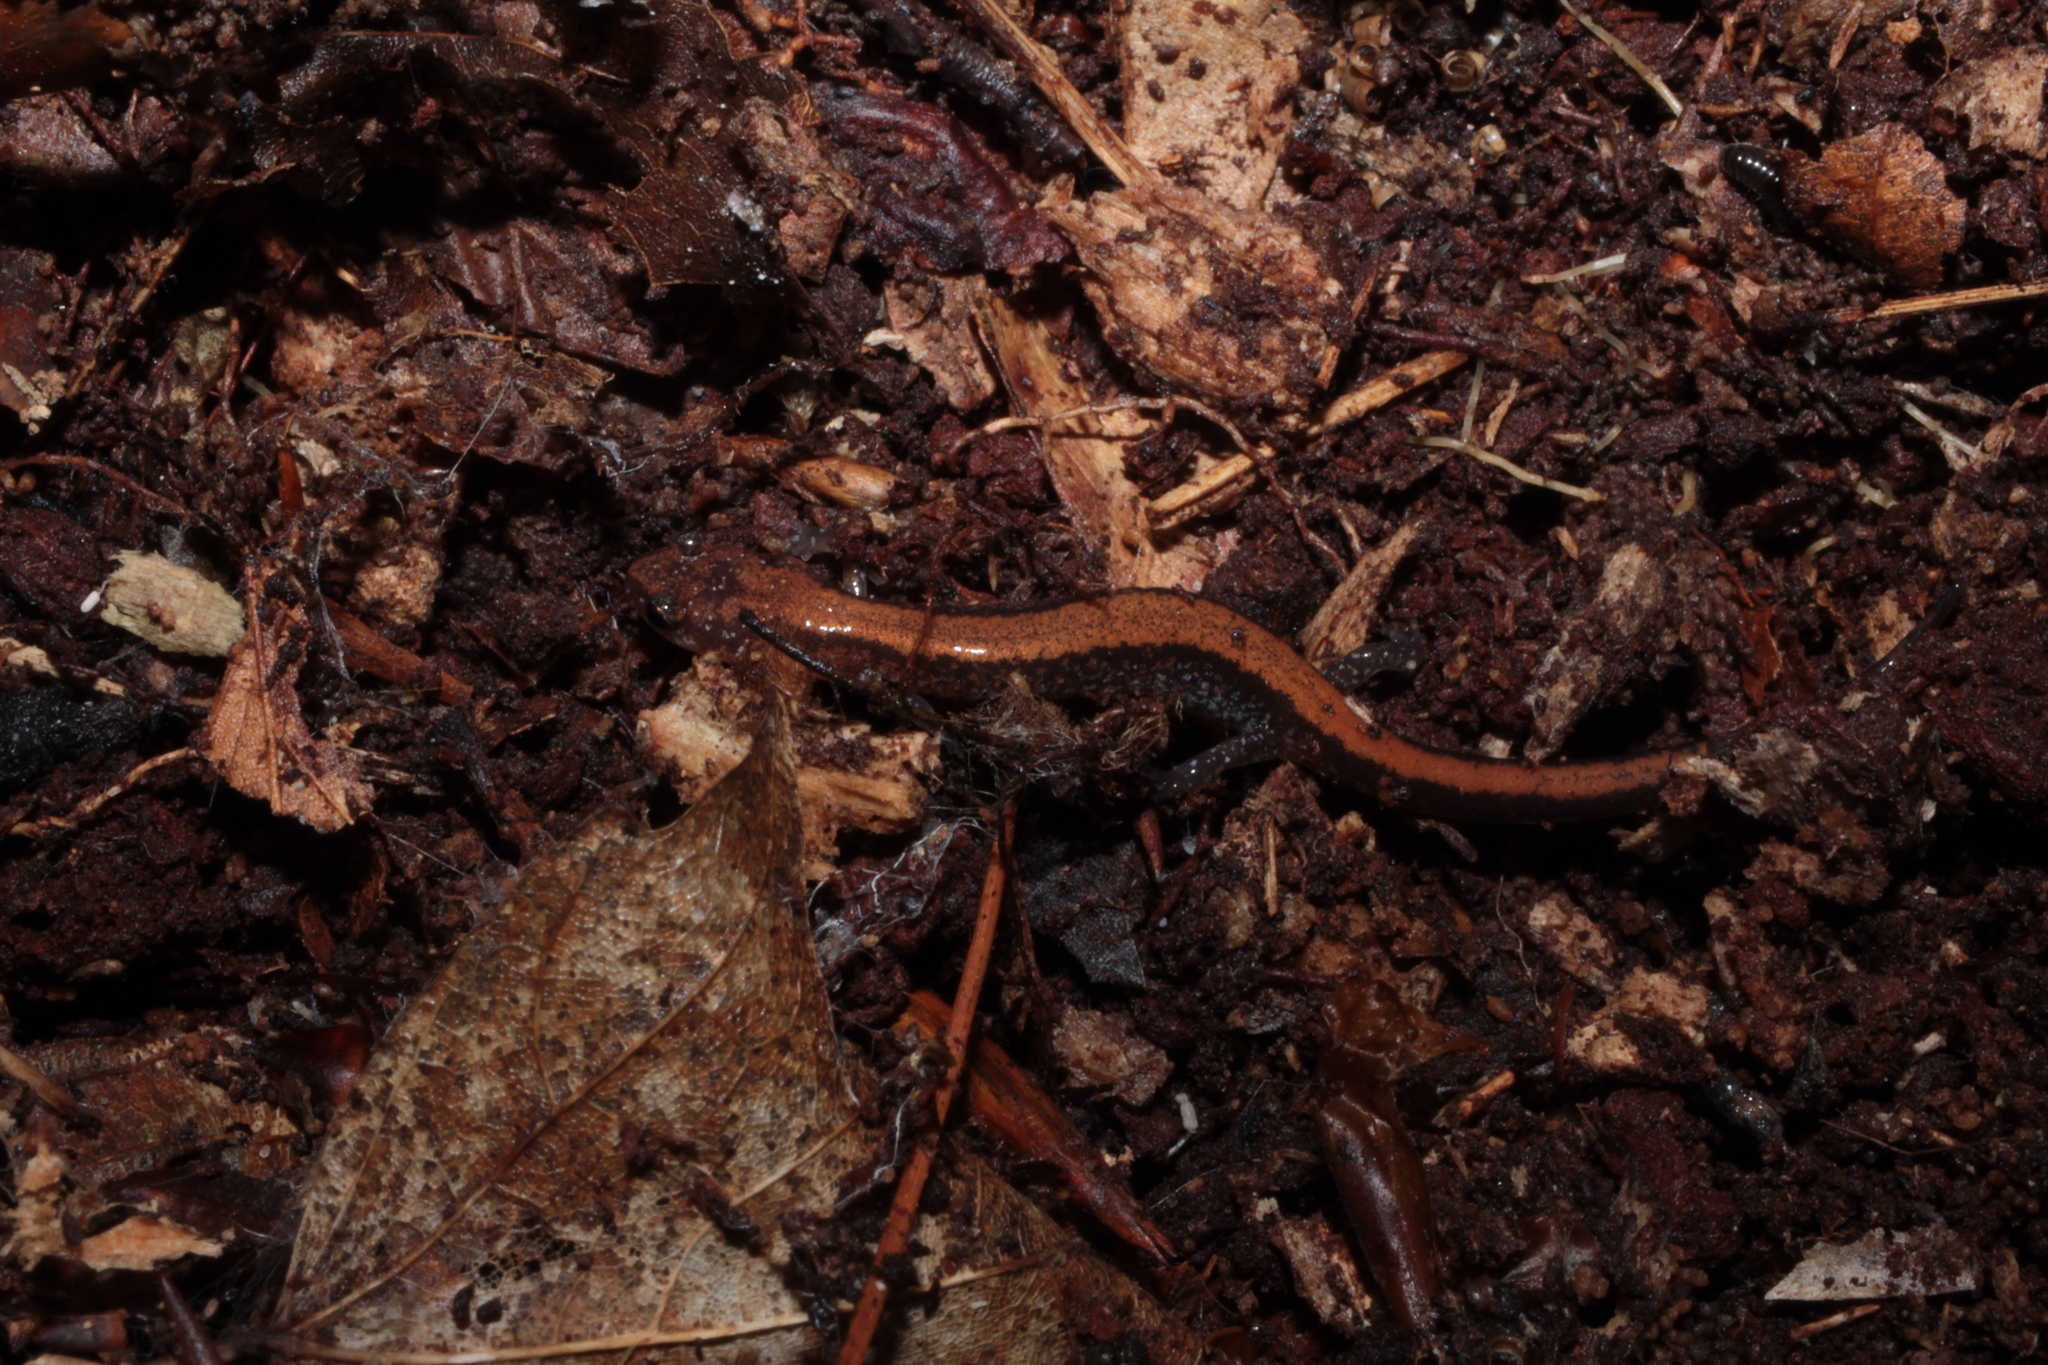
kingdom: Animalia
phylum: Chordata
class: Amphibia
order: Caudata
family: Plethodontidae
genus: Plethodon
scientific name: Plethodon cinereus
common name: Redback salamander
